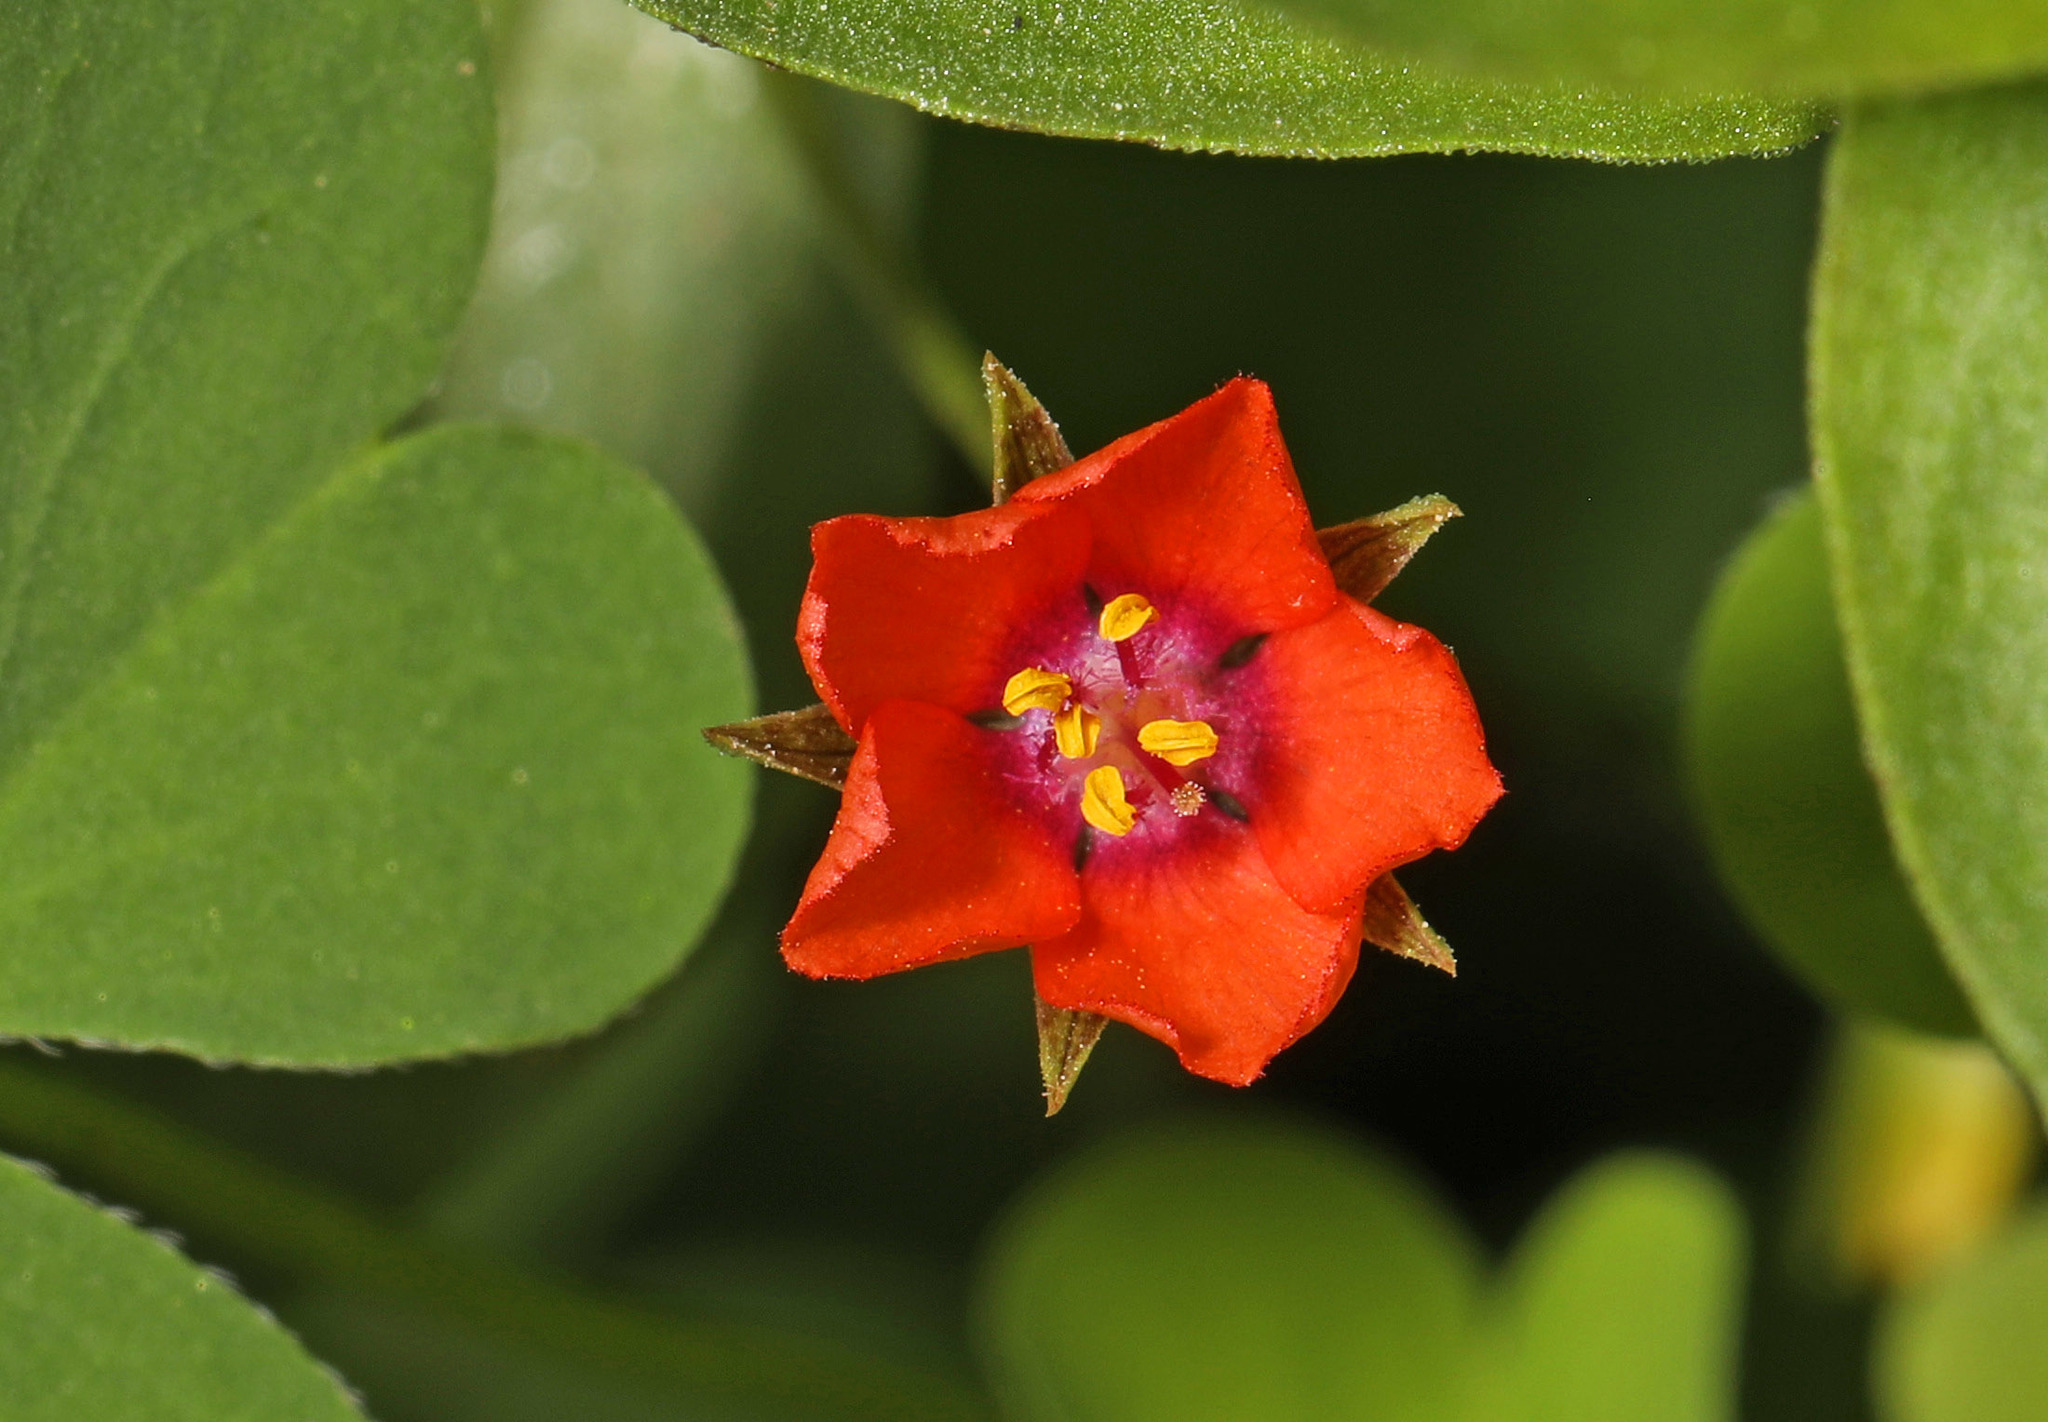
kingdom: Plantae
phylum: Tracheophyta
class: Magnoliopsida
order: Ericales
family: Primulaceae
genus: Lysimachia
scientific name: Lysimachia arvensis
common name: Scarlet pimpernel
